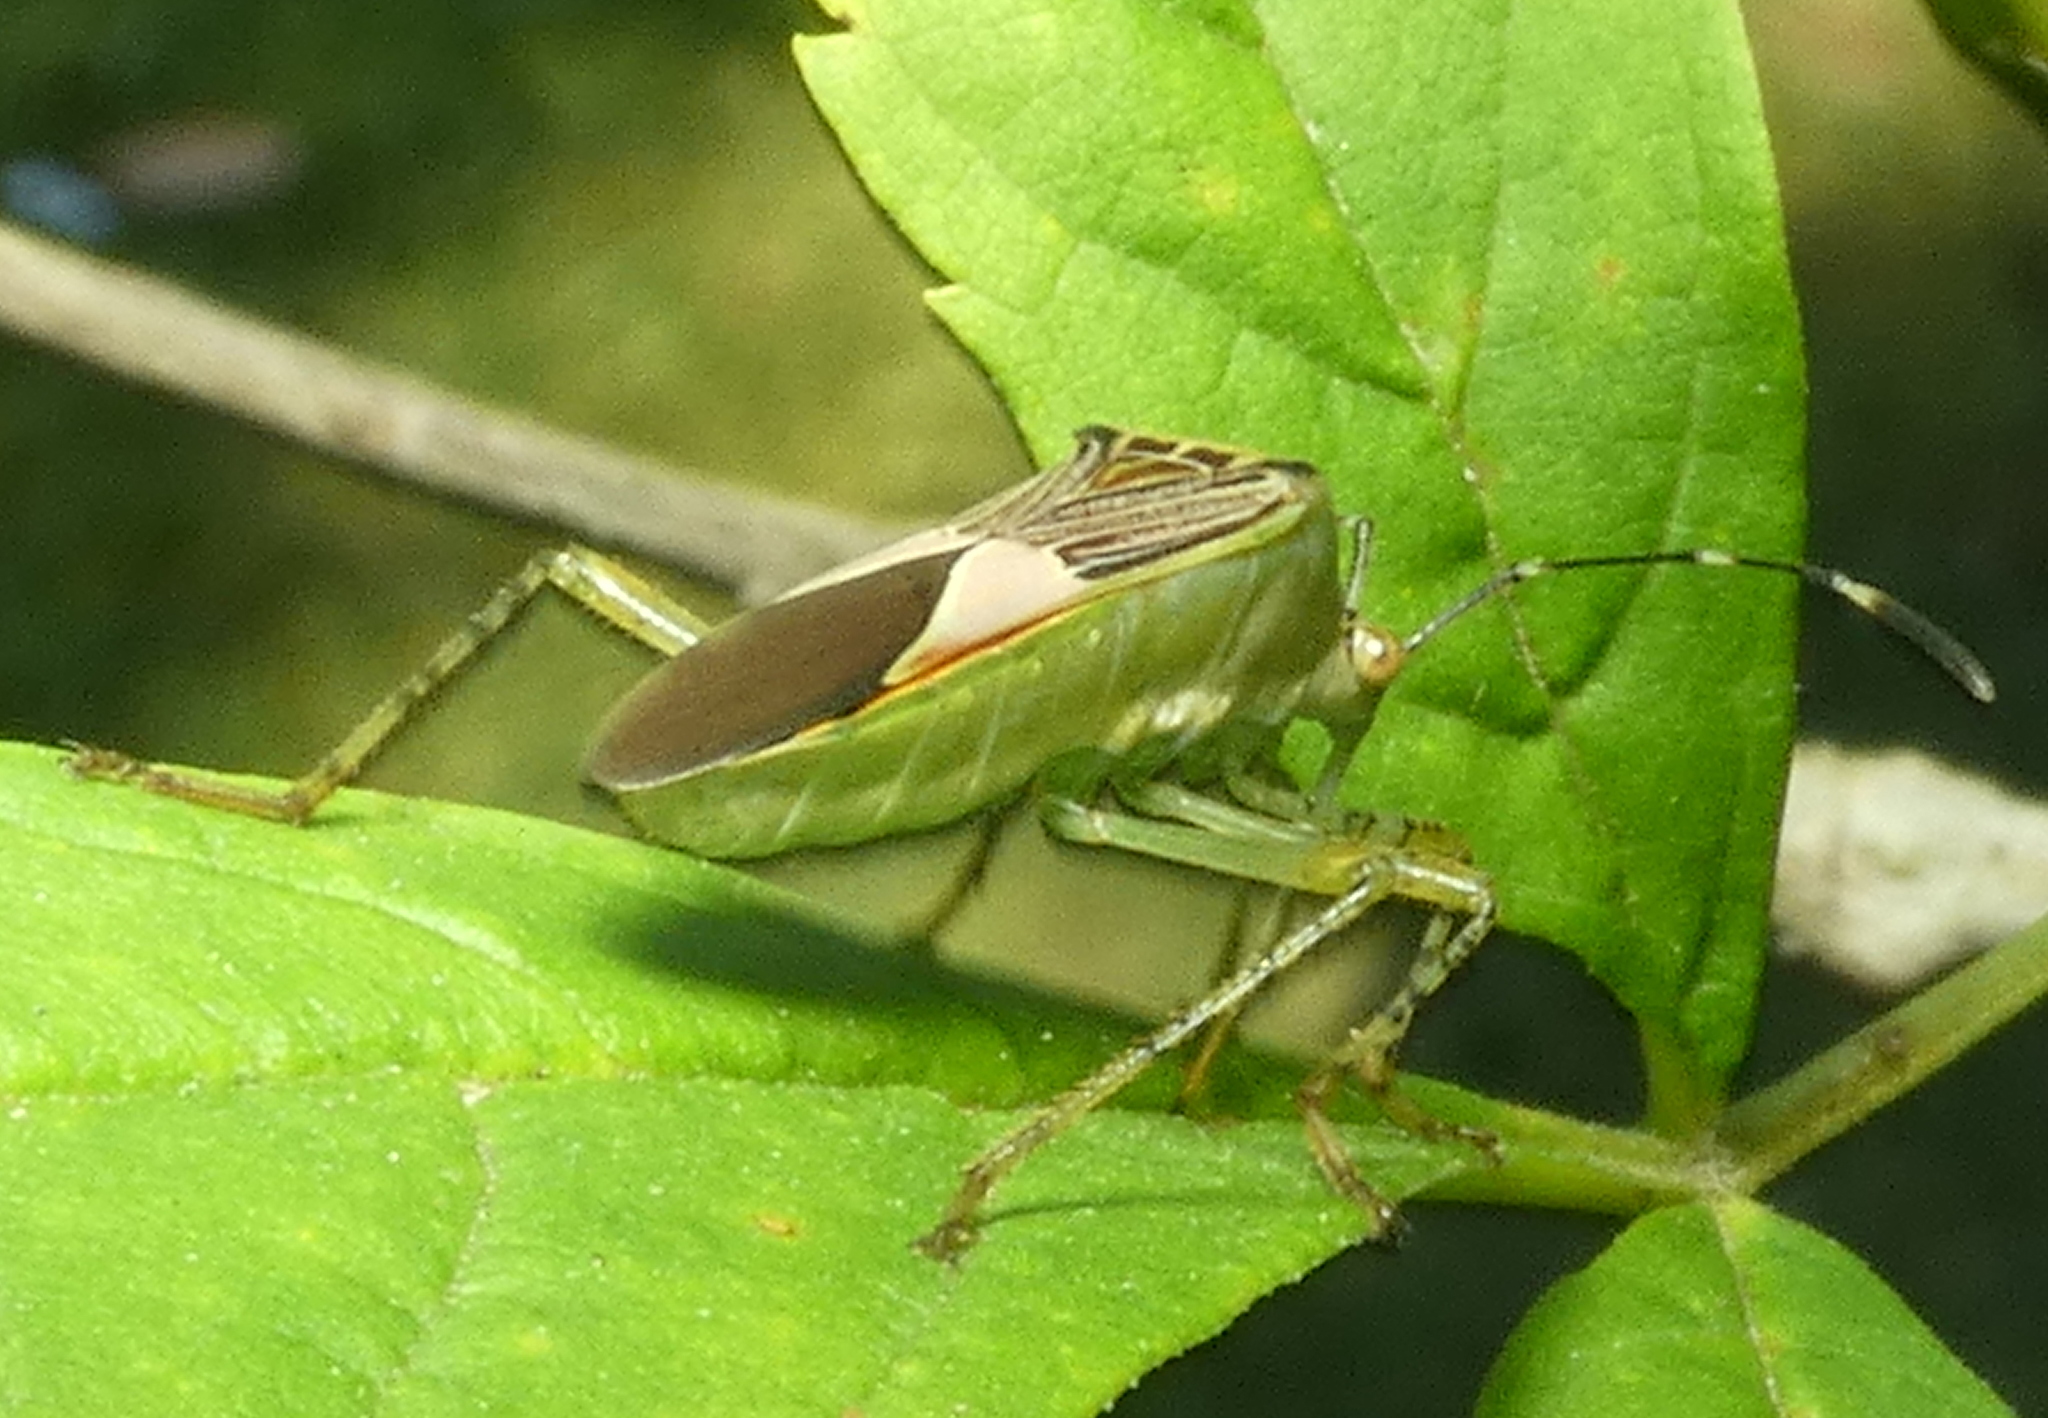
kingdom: Animalia
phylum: Arthropoda
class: Insecta
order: Hemiptera
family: Coreidae
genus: Hypselonotus
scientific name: Hypselonotus fulvus
